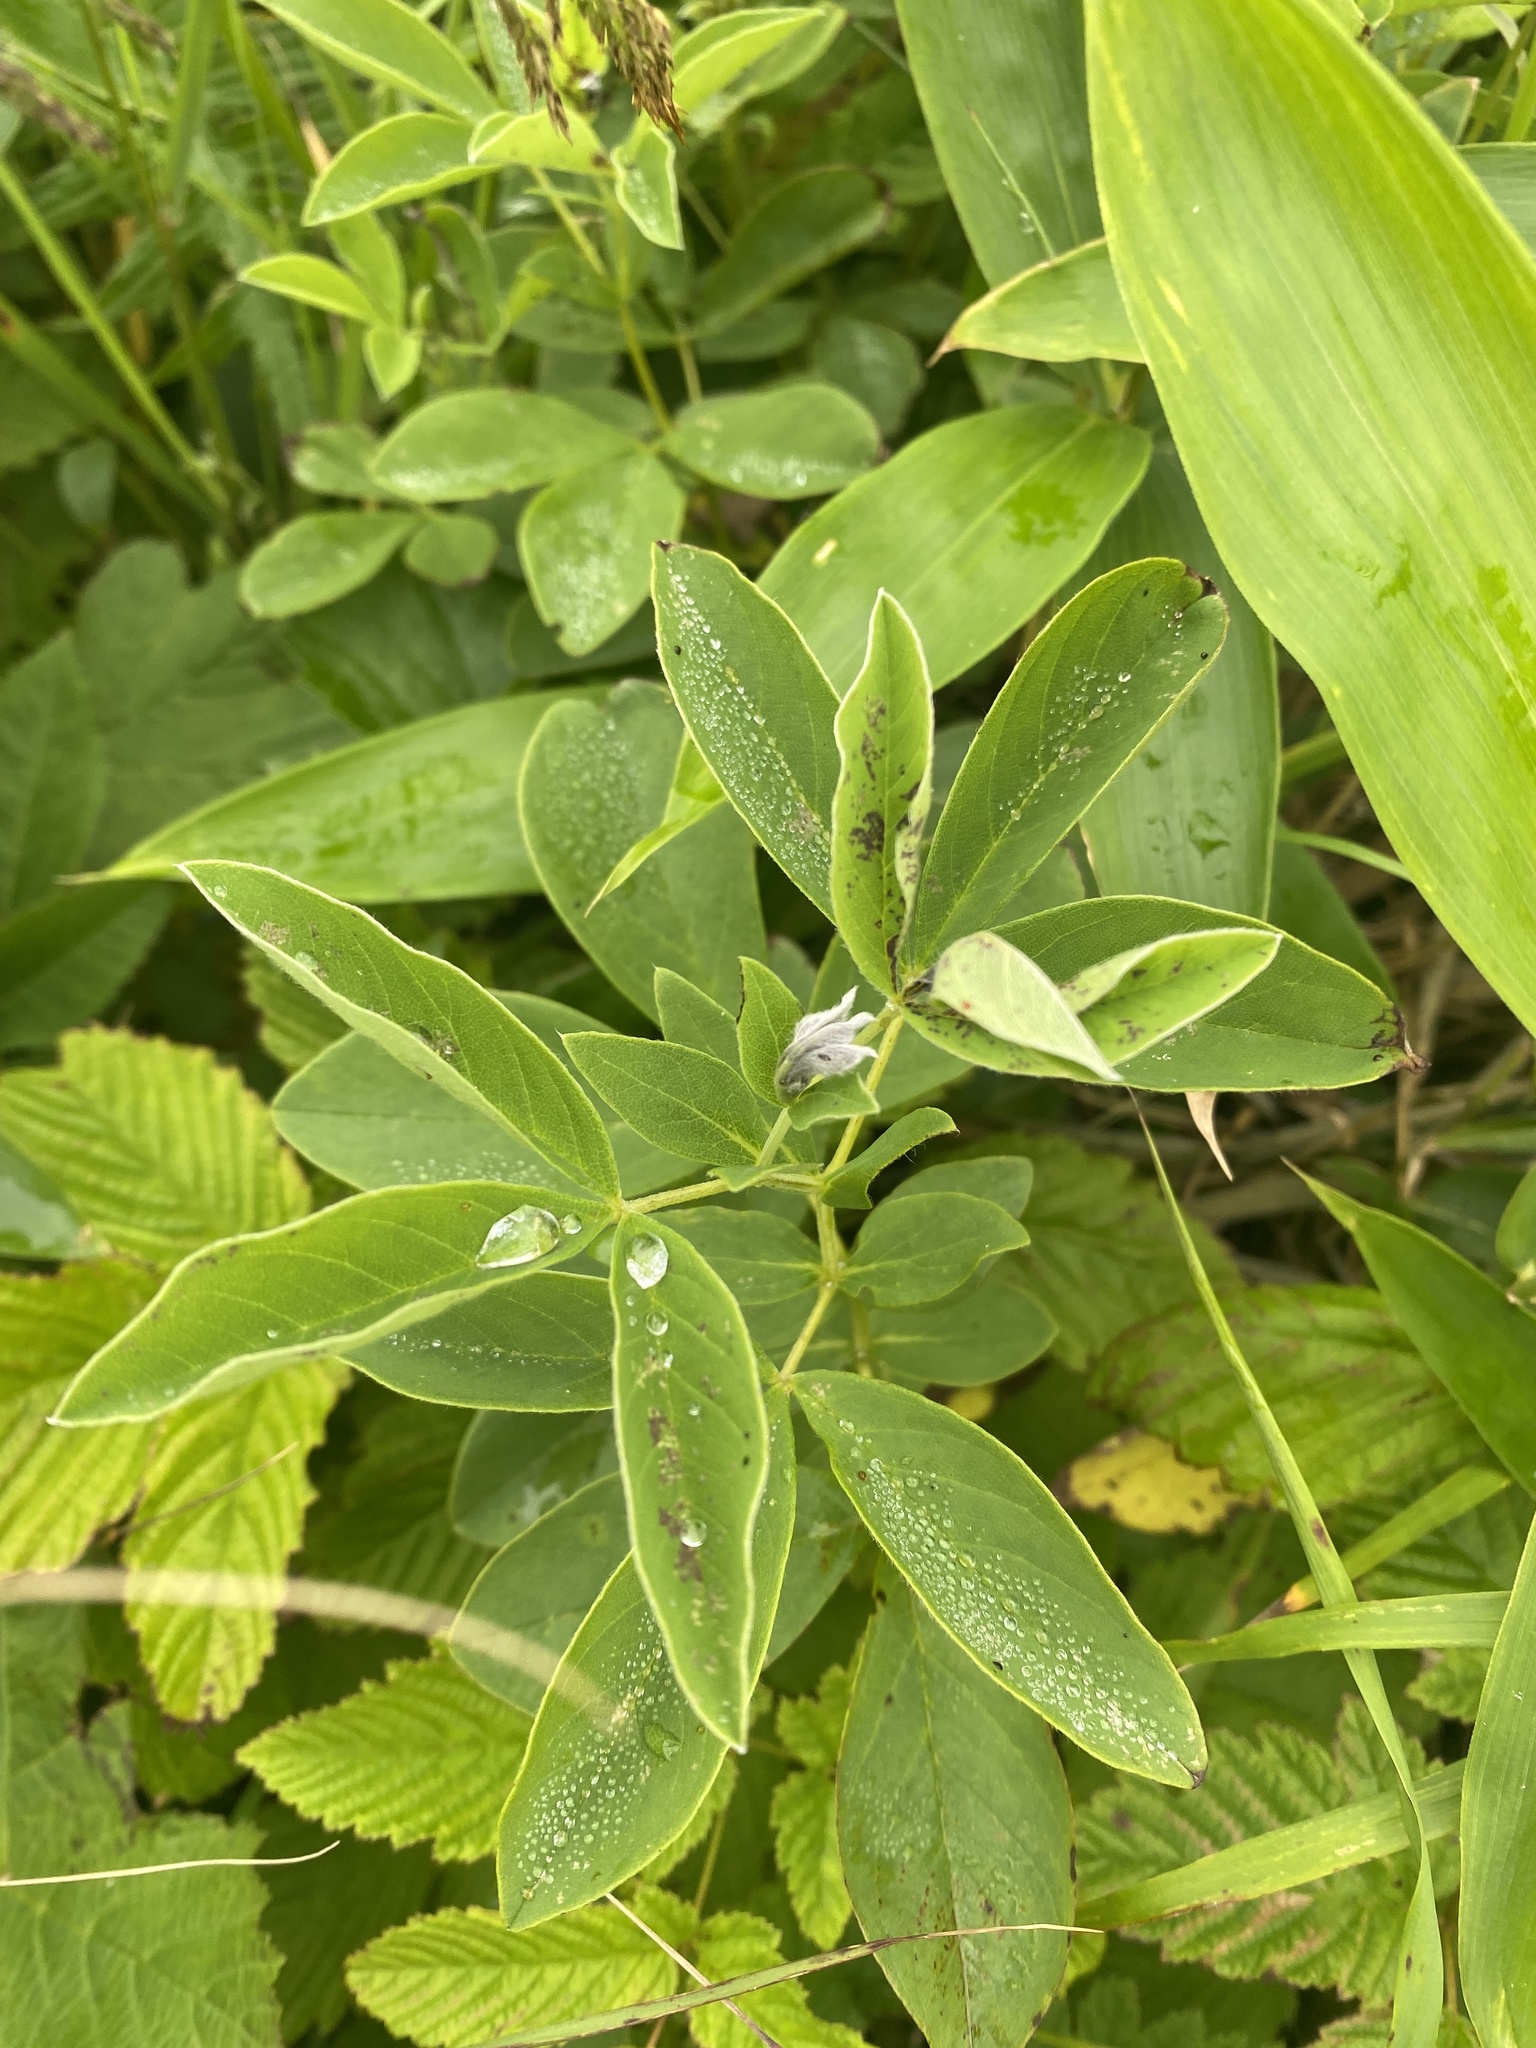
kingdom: Plantae
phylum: Tracheophyta
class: Magnoliopsida
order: Fabales
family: Fabaceae
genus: Thermopsis
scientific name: Thermopsis lanceolata
